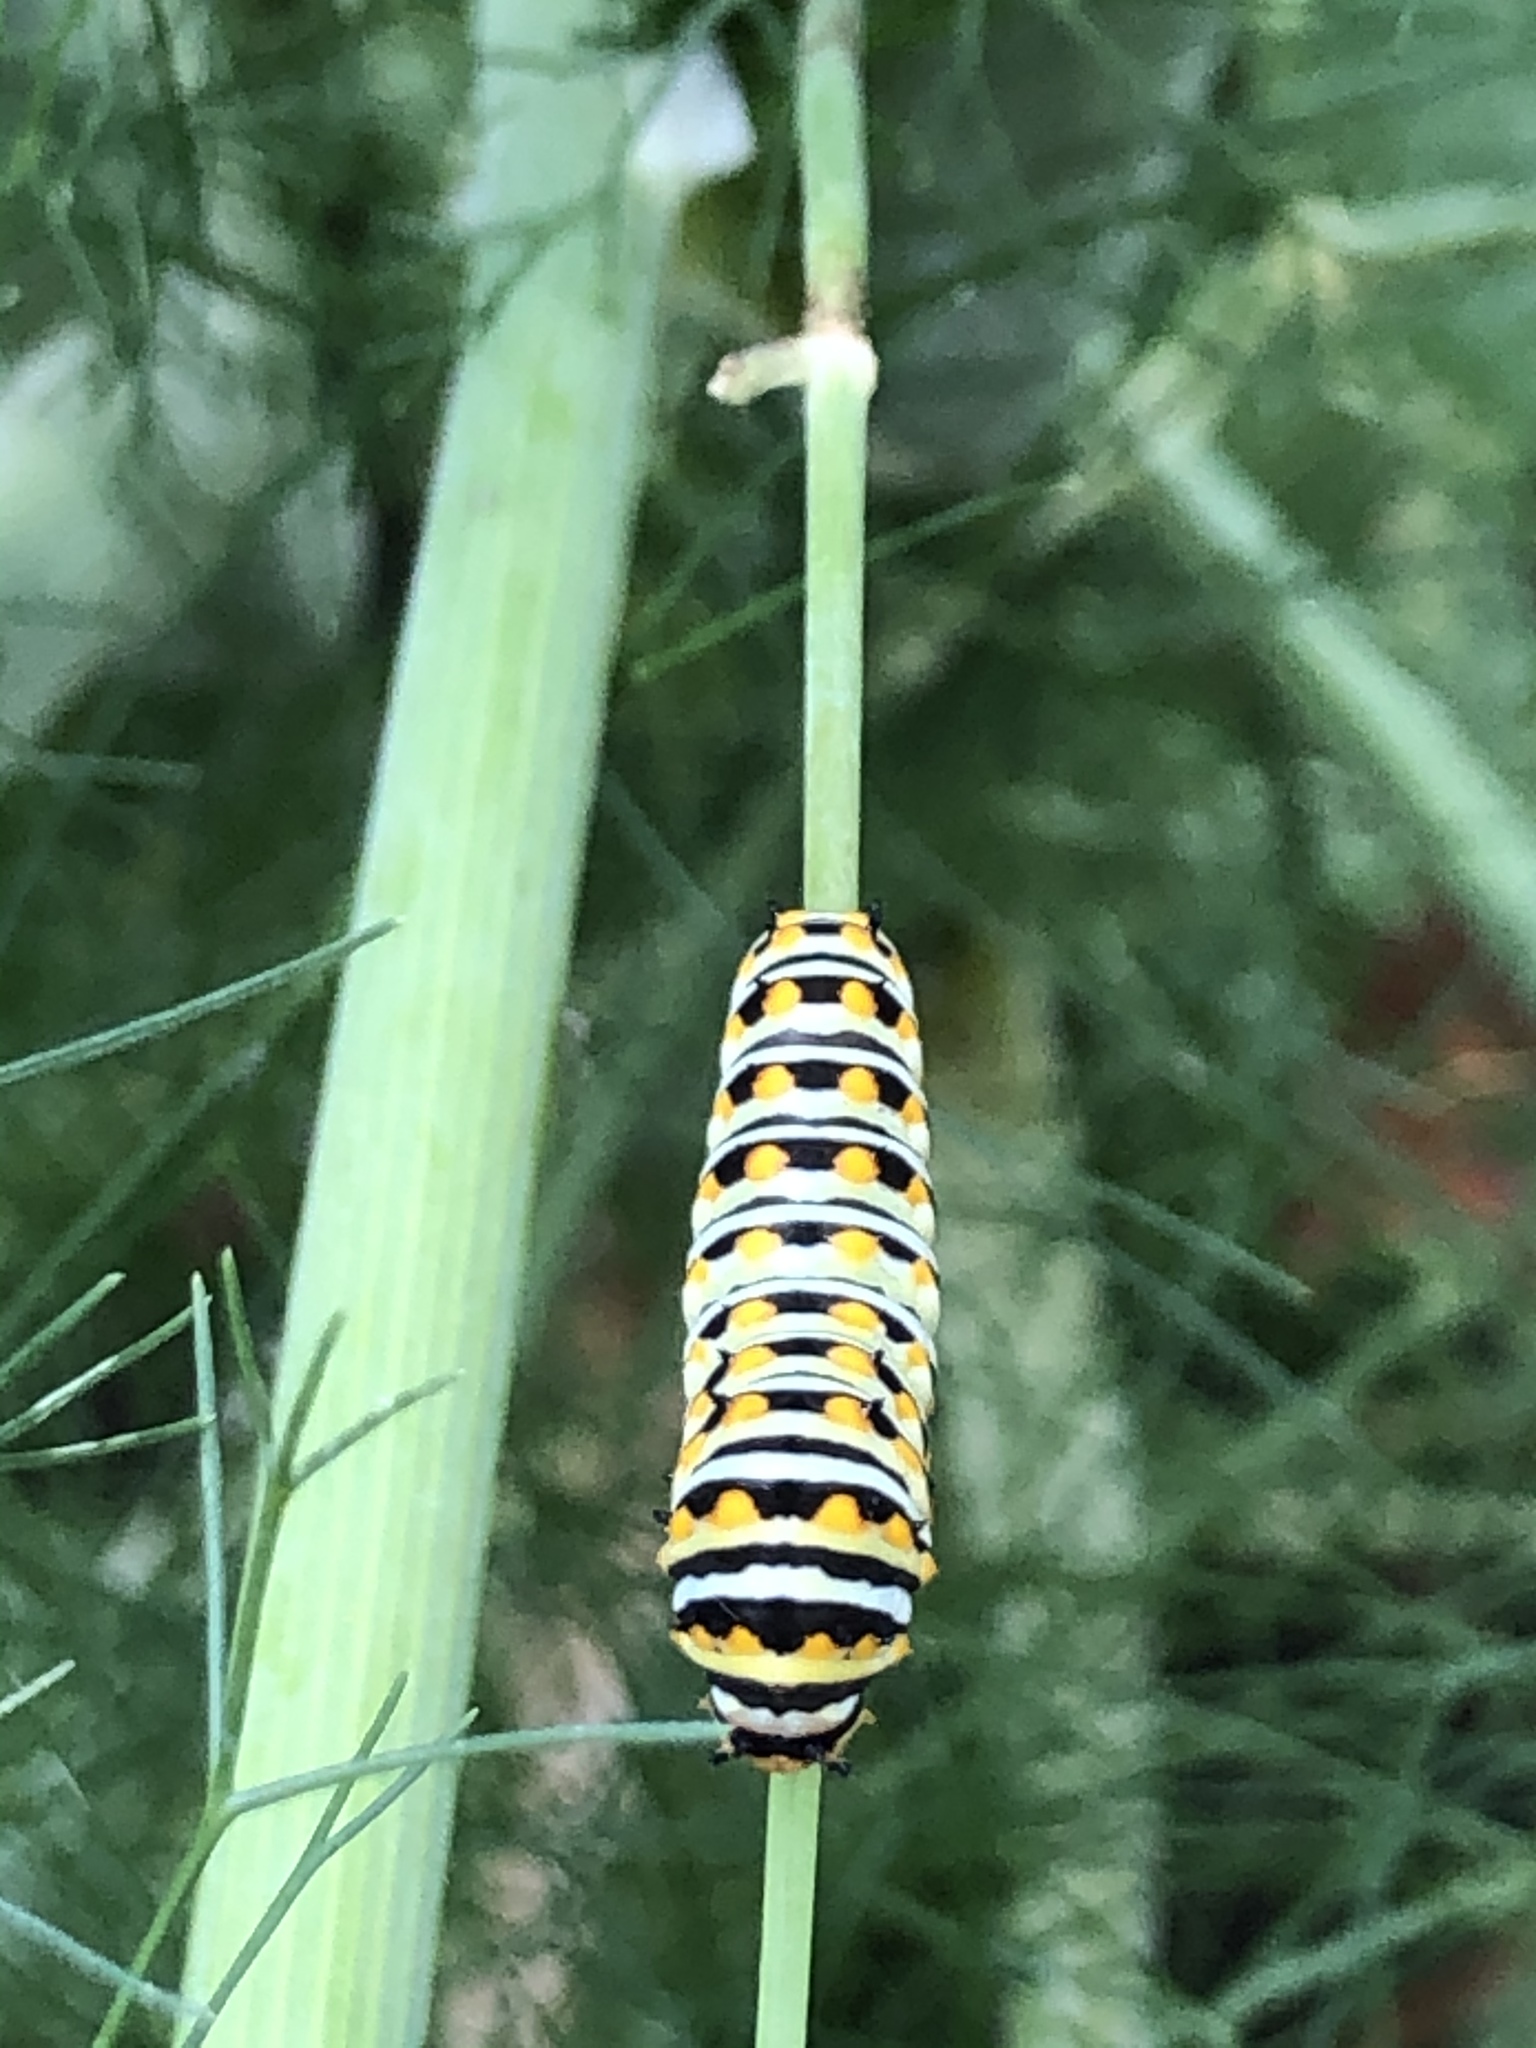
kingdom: Animalia
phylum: Arthropoda
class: Insecta
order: Lepidoptera
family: Papilionidae
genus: Papilio
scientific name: Papilio polyxenes
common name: Black swallowtail
